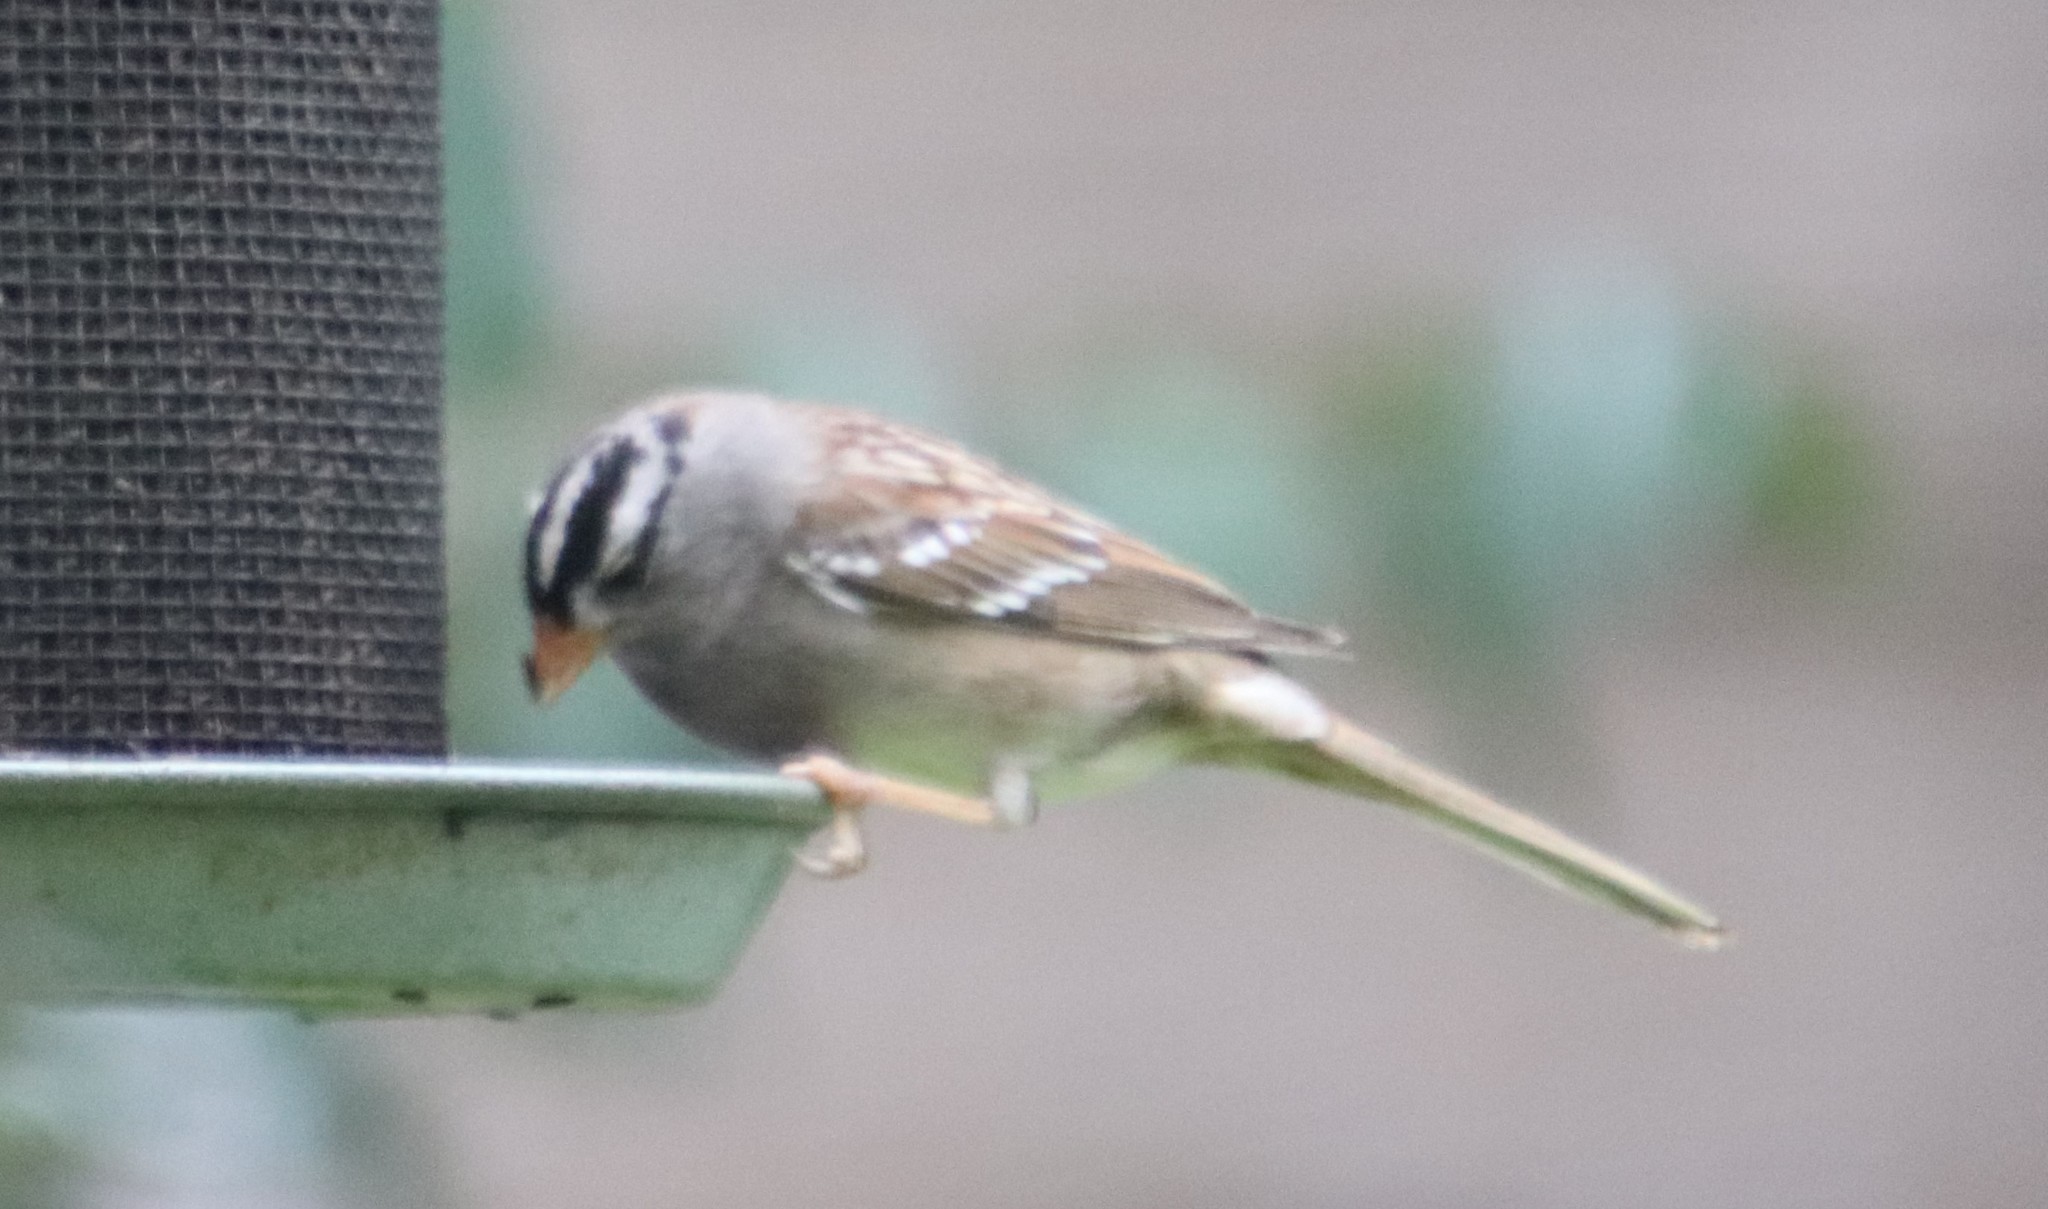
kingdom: Animalia
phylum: Chordata
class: Aves
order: Passeriformes
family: Passerellidae
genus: Zonotrichia
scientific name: Zonotrichia leucophrys
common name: White-crowned sparrow
